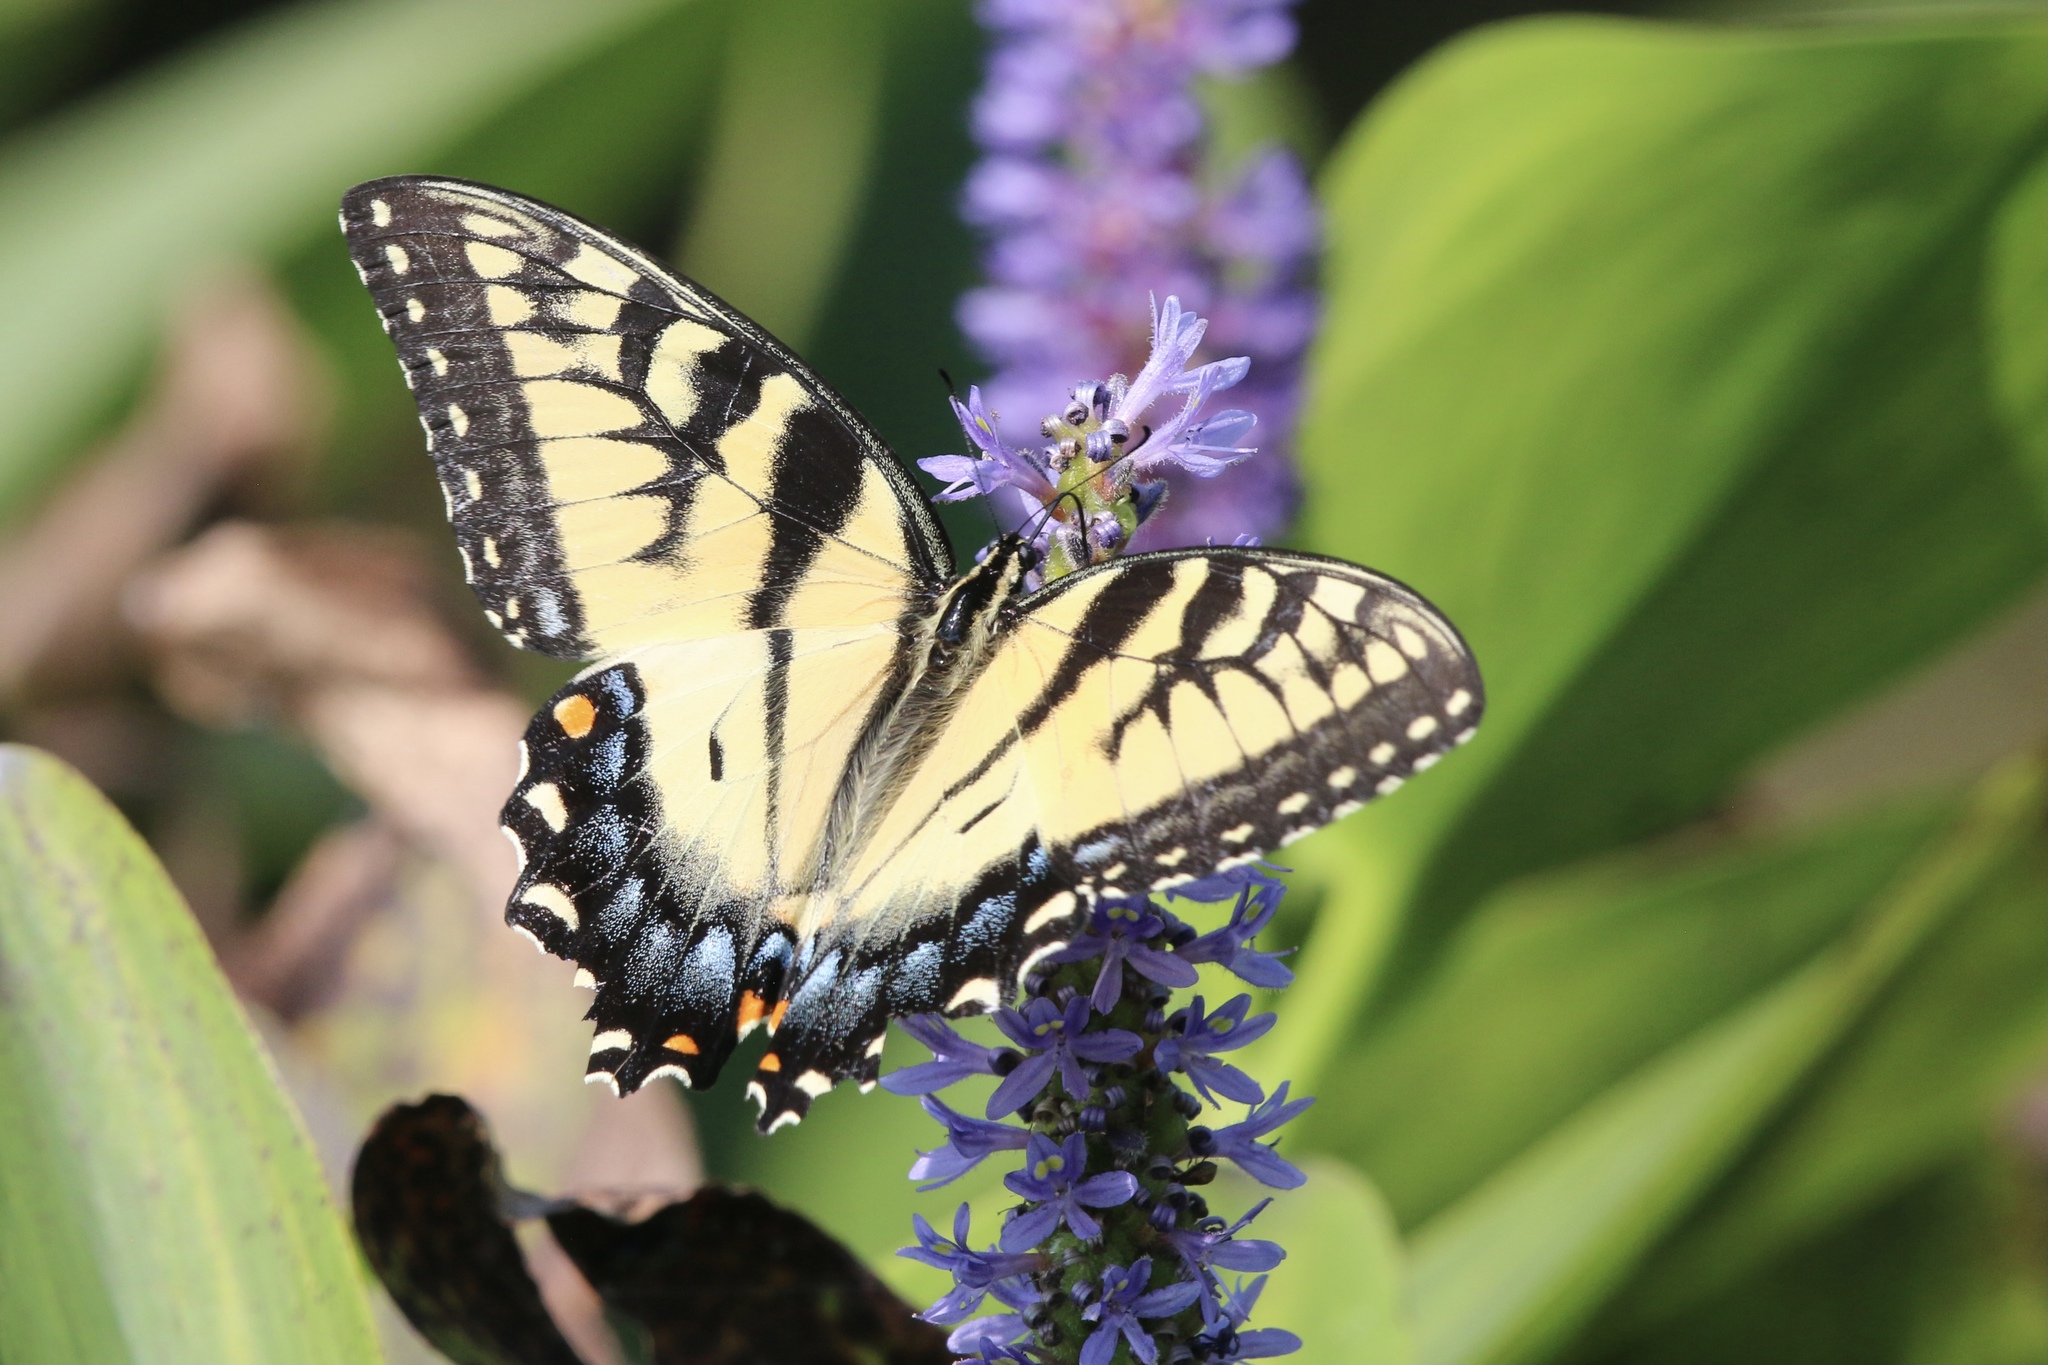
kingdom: Animalia
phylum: Arthropoda
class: Insecta
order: Lepidoptera
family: Papilionidae
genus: Papilio
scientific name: Papilio glaucus
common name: Tiger swallowtail
